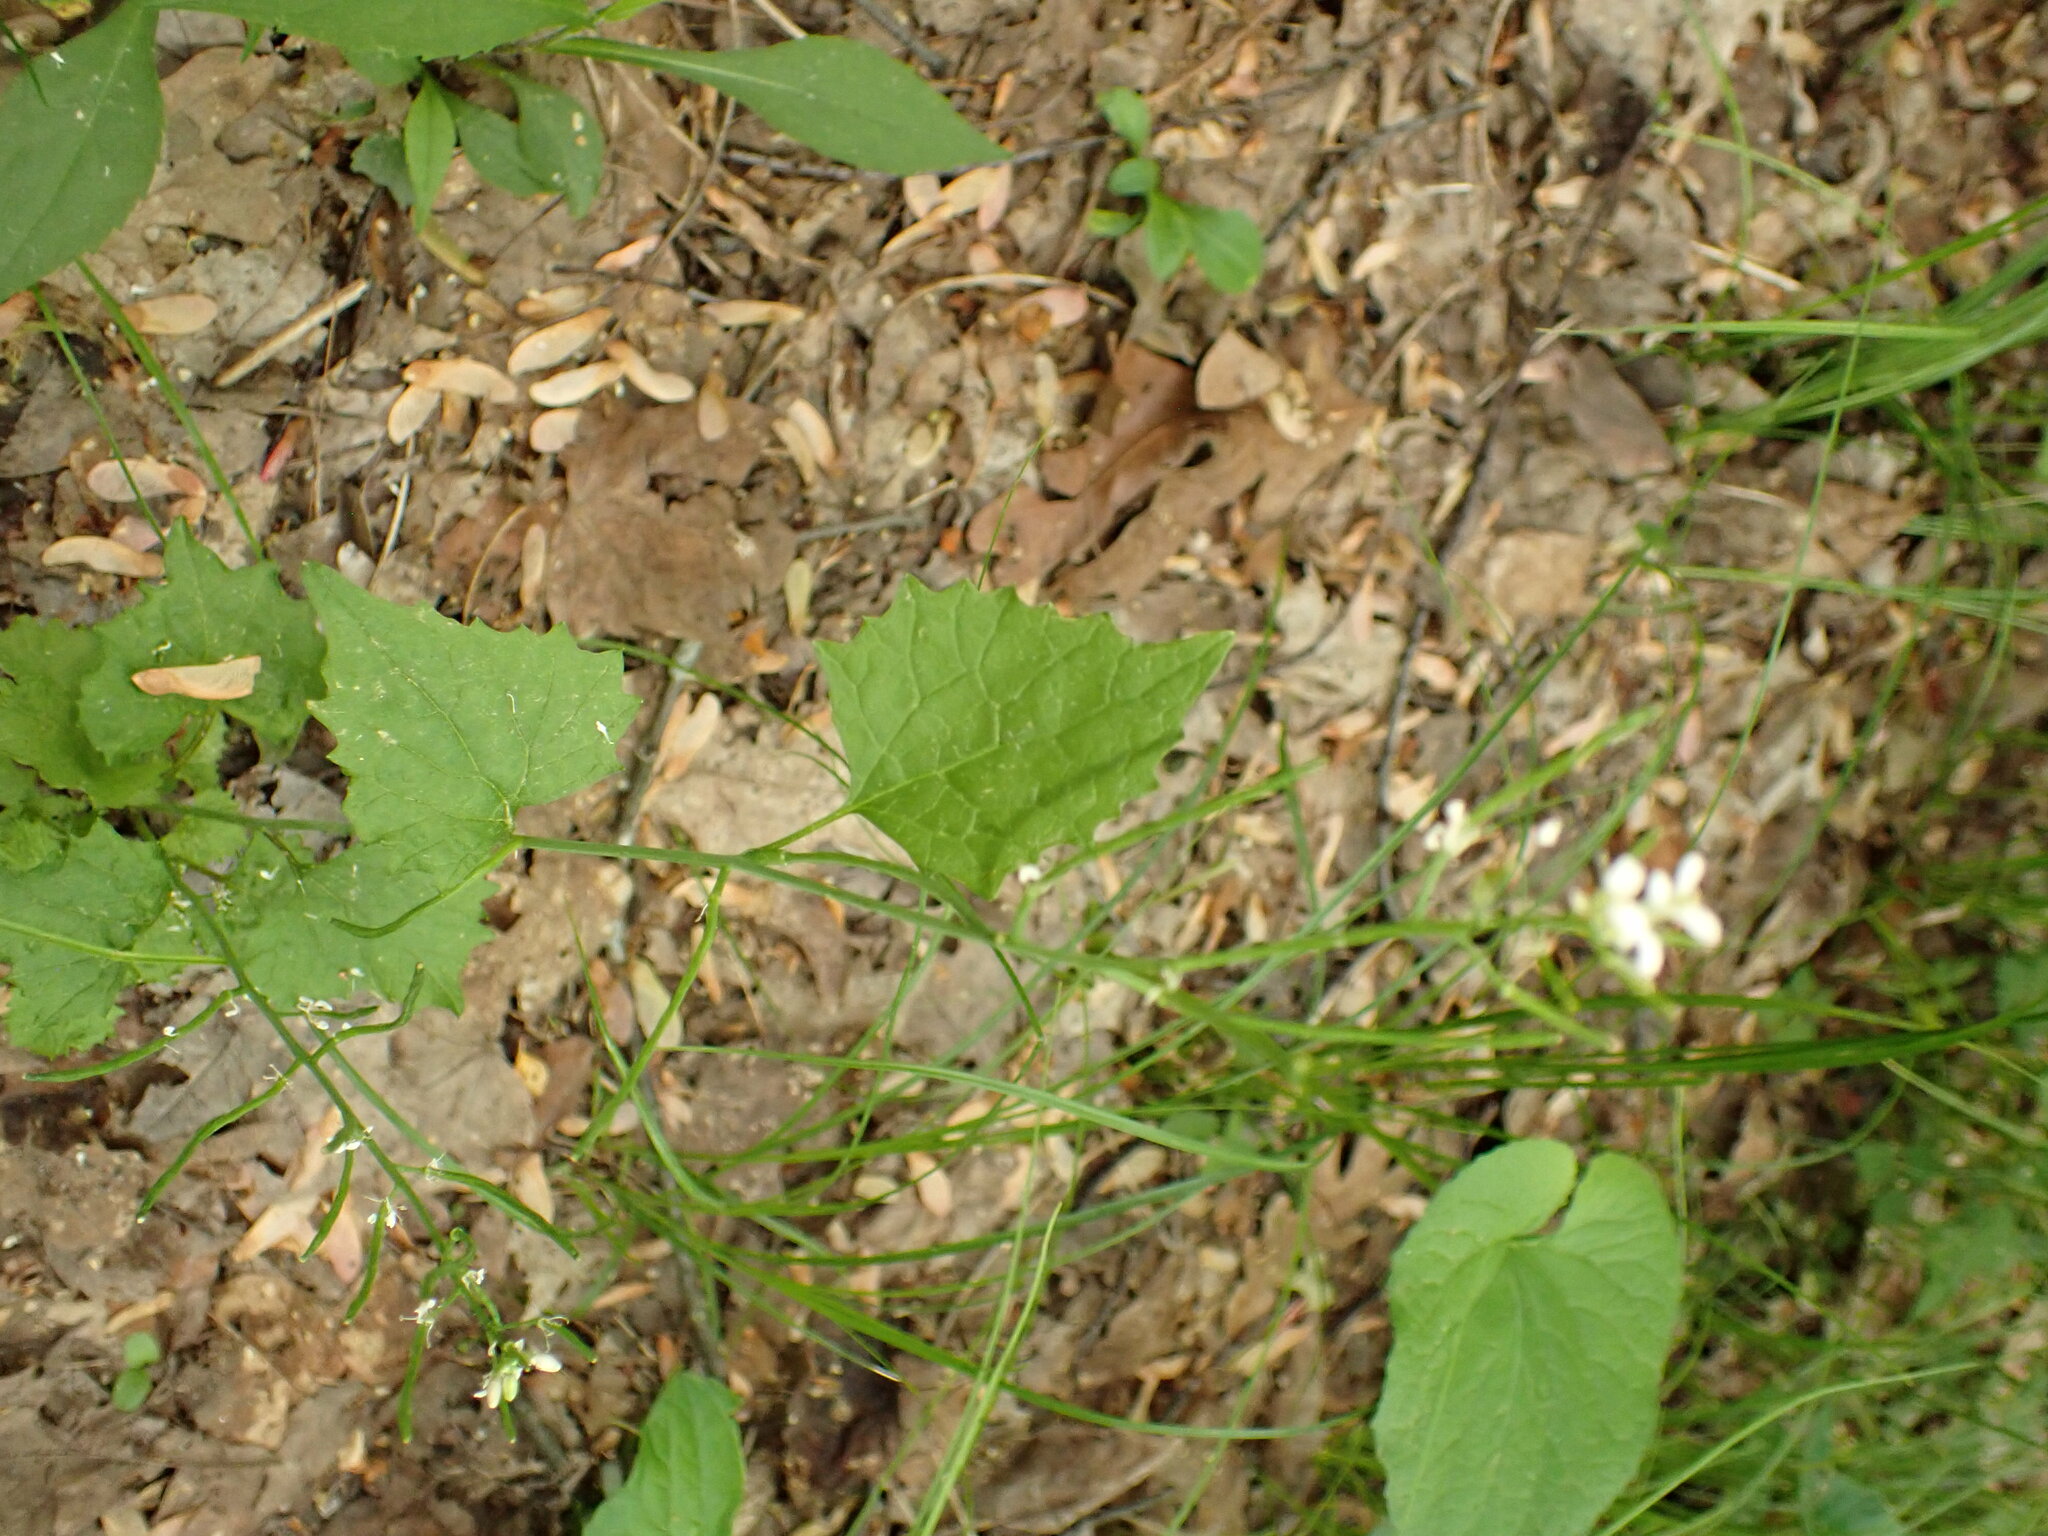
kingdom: Plantae
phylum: Tracheophyta
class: Magnoliopsida
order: Brassicales
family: Brassicaceae
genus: Alliaria
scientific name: Alliaria petiolata
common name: Garlic mustard
